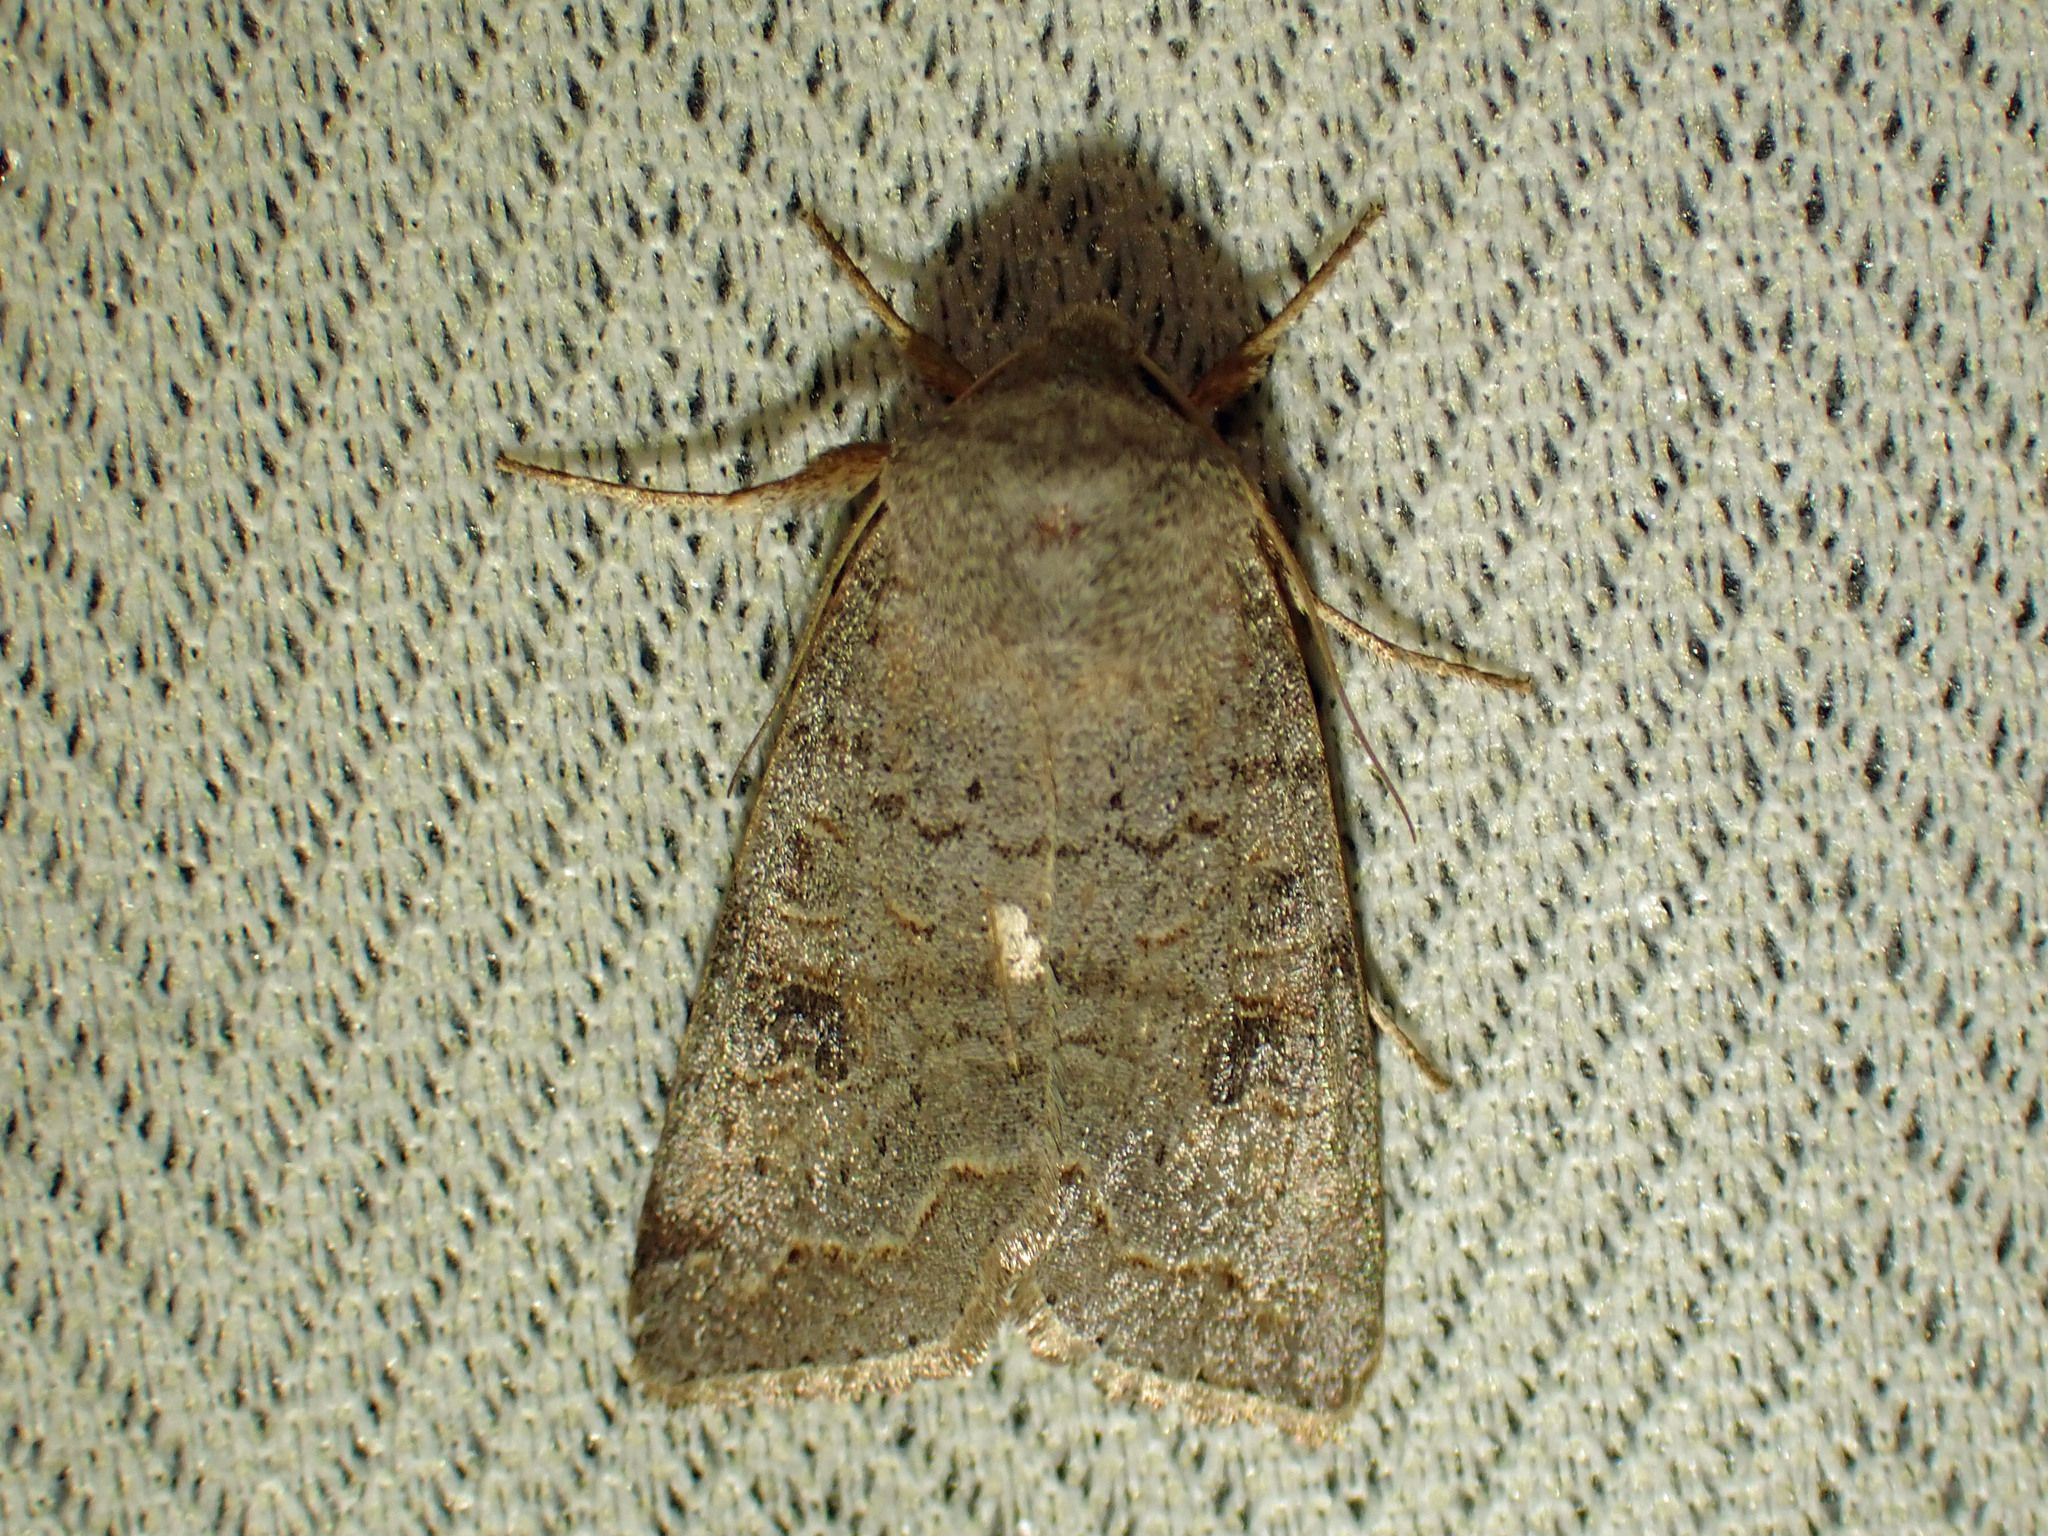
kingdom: Animalia
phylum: Arthropoda
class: Insecta
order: Lepidoptera
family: Noctuidae
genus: Orthosia
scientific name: Orthosia revicta
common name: Rusty whitesided caterpillar
